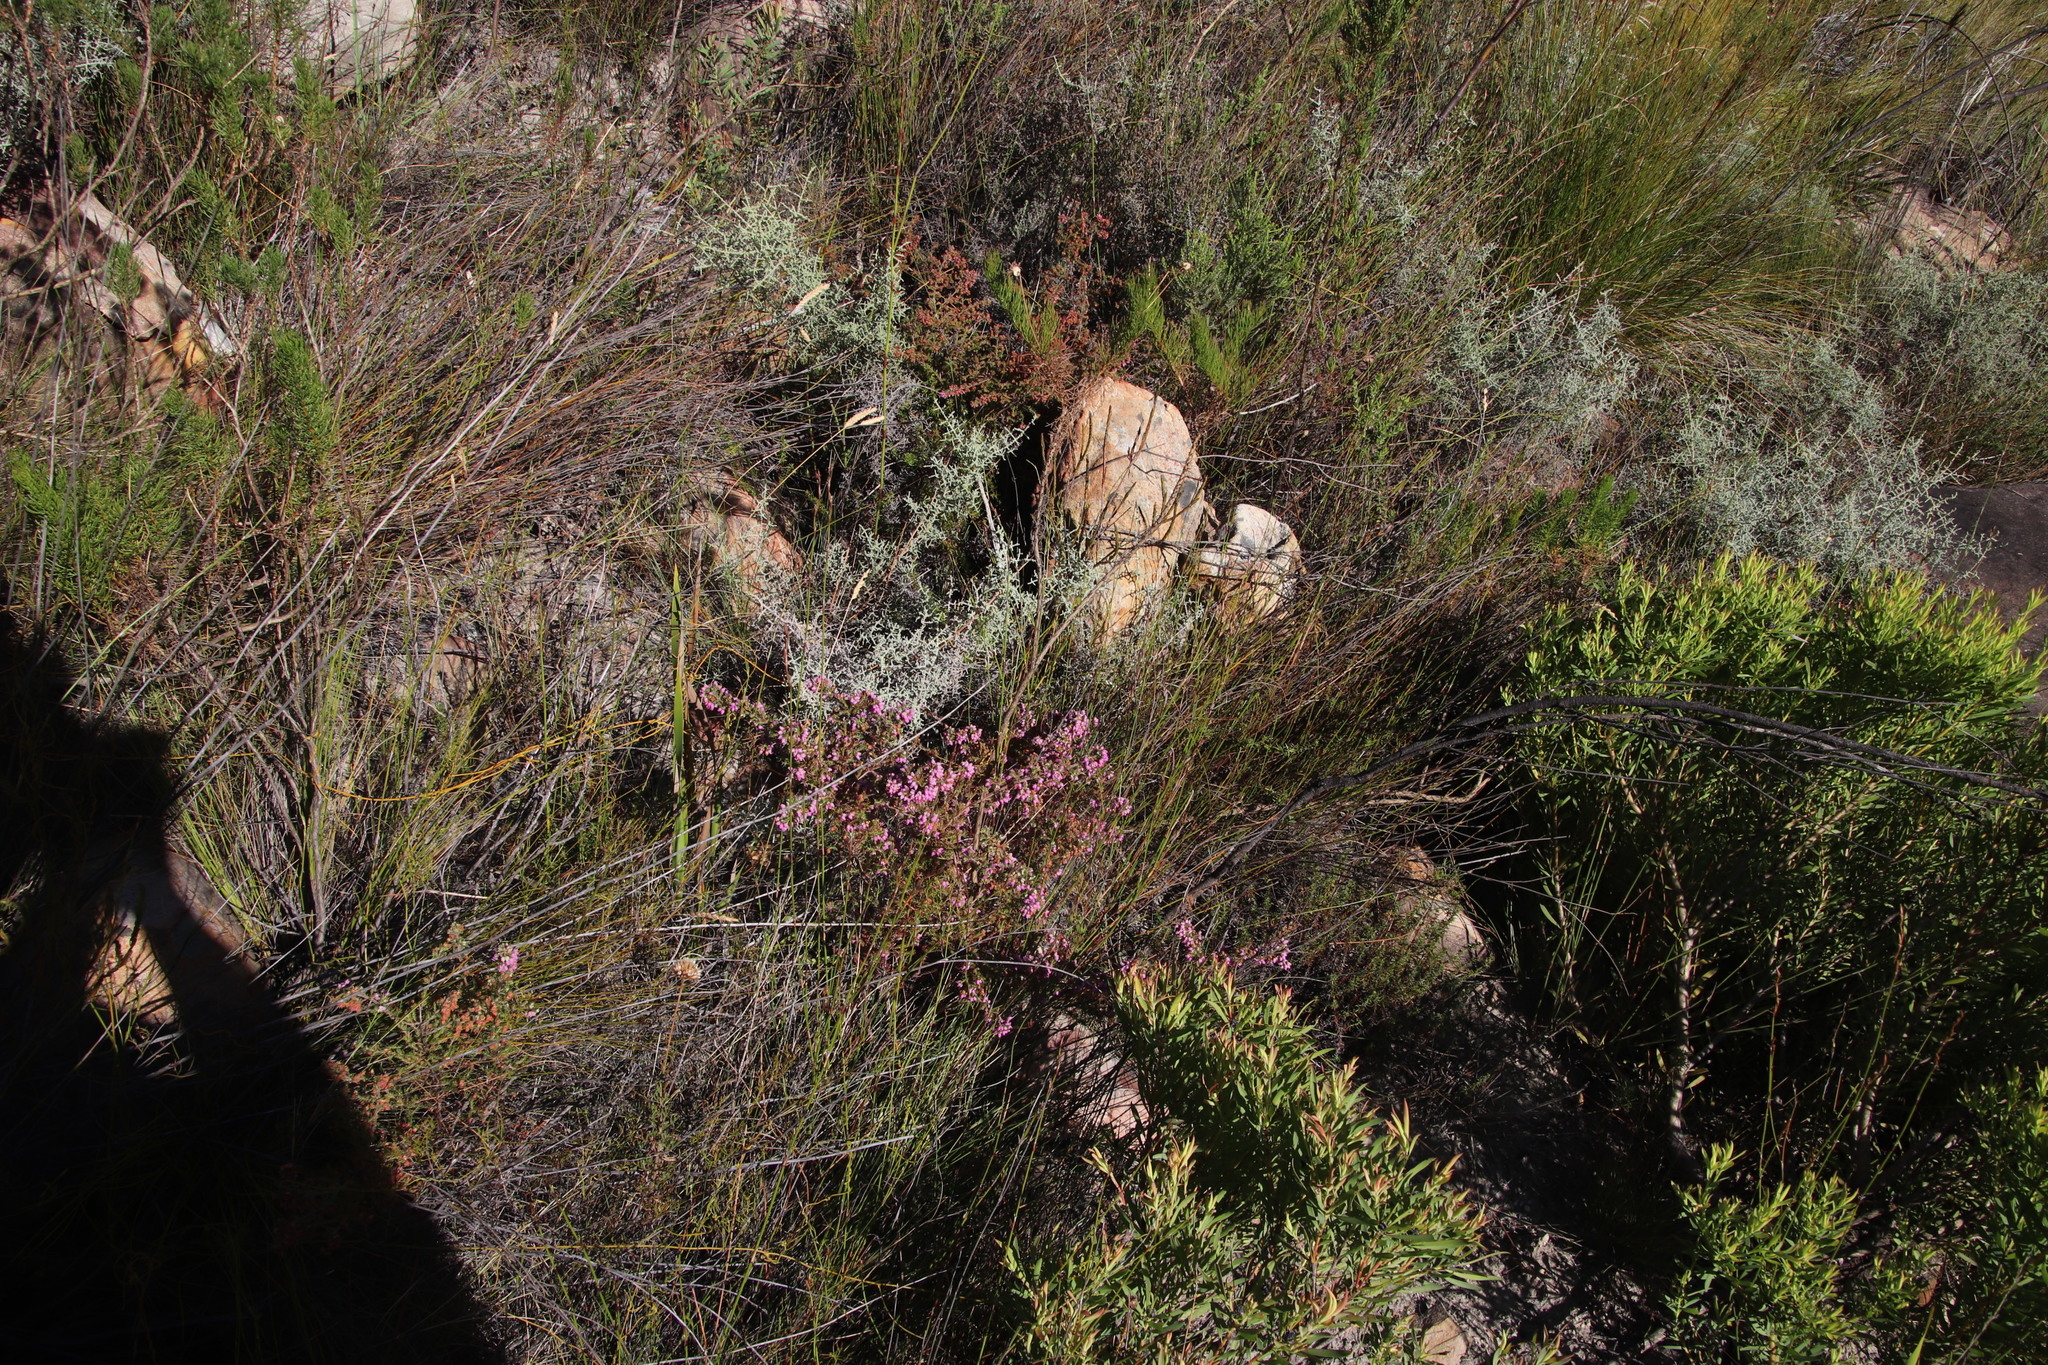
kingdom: Plantae
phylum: Tracheophyta
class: Magnoliopsida
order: Ericales
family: Ericaceae
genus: Erica
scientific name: Erica parviflora
